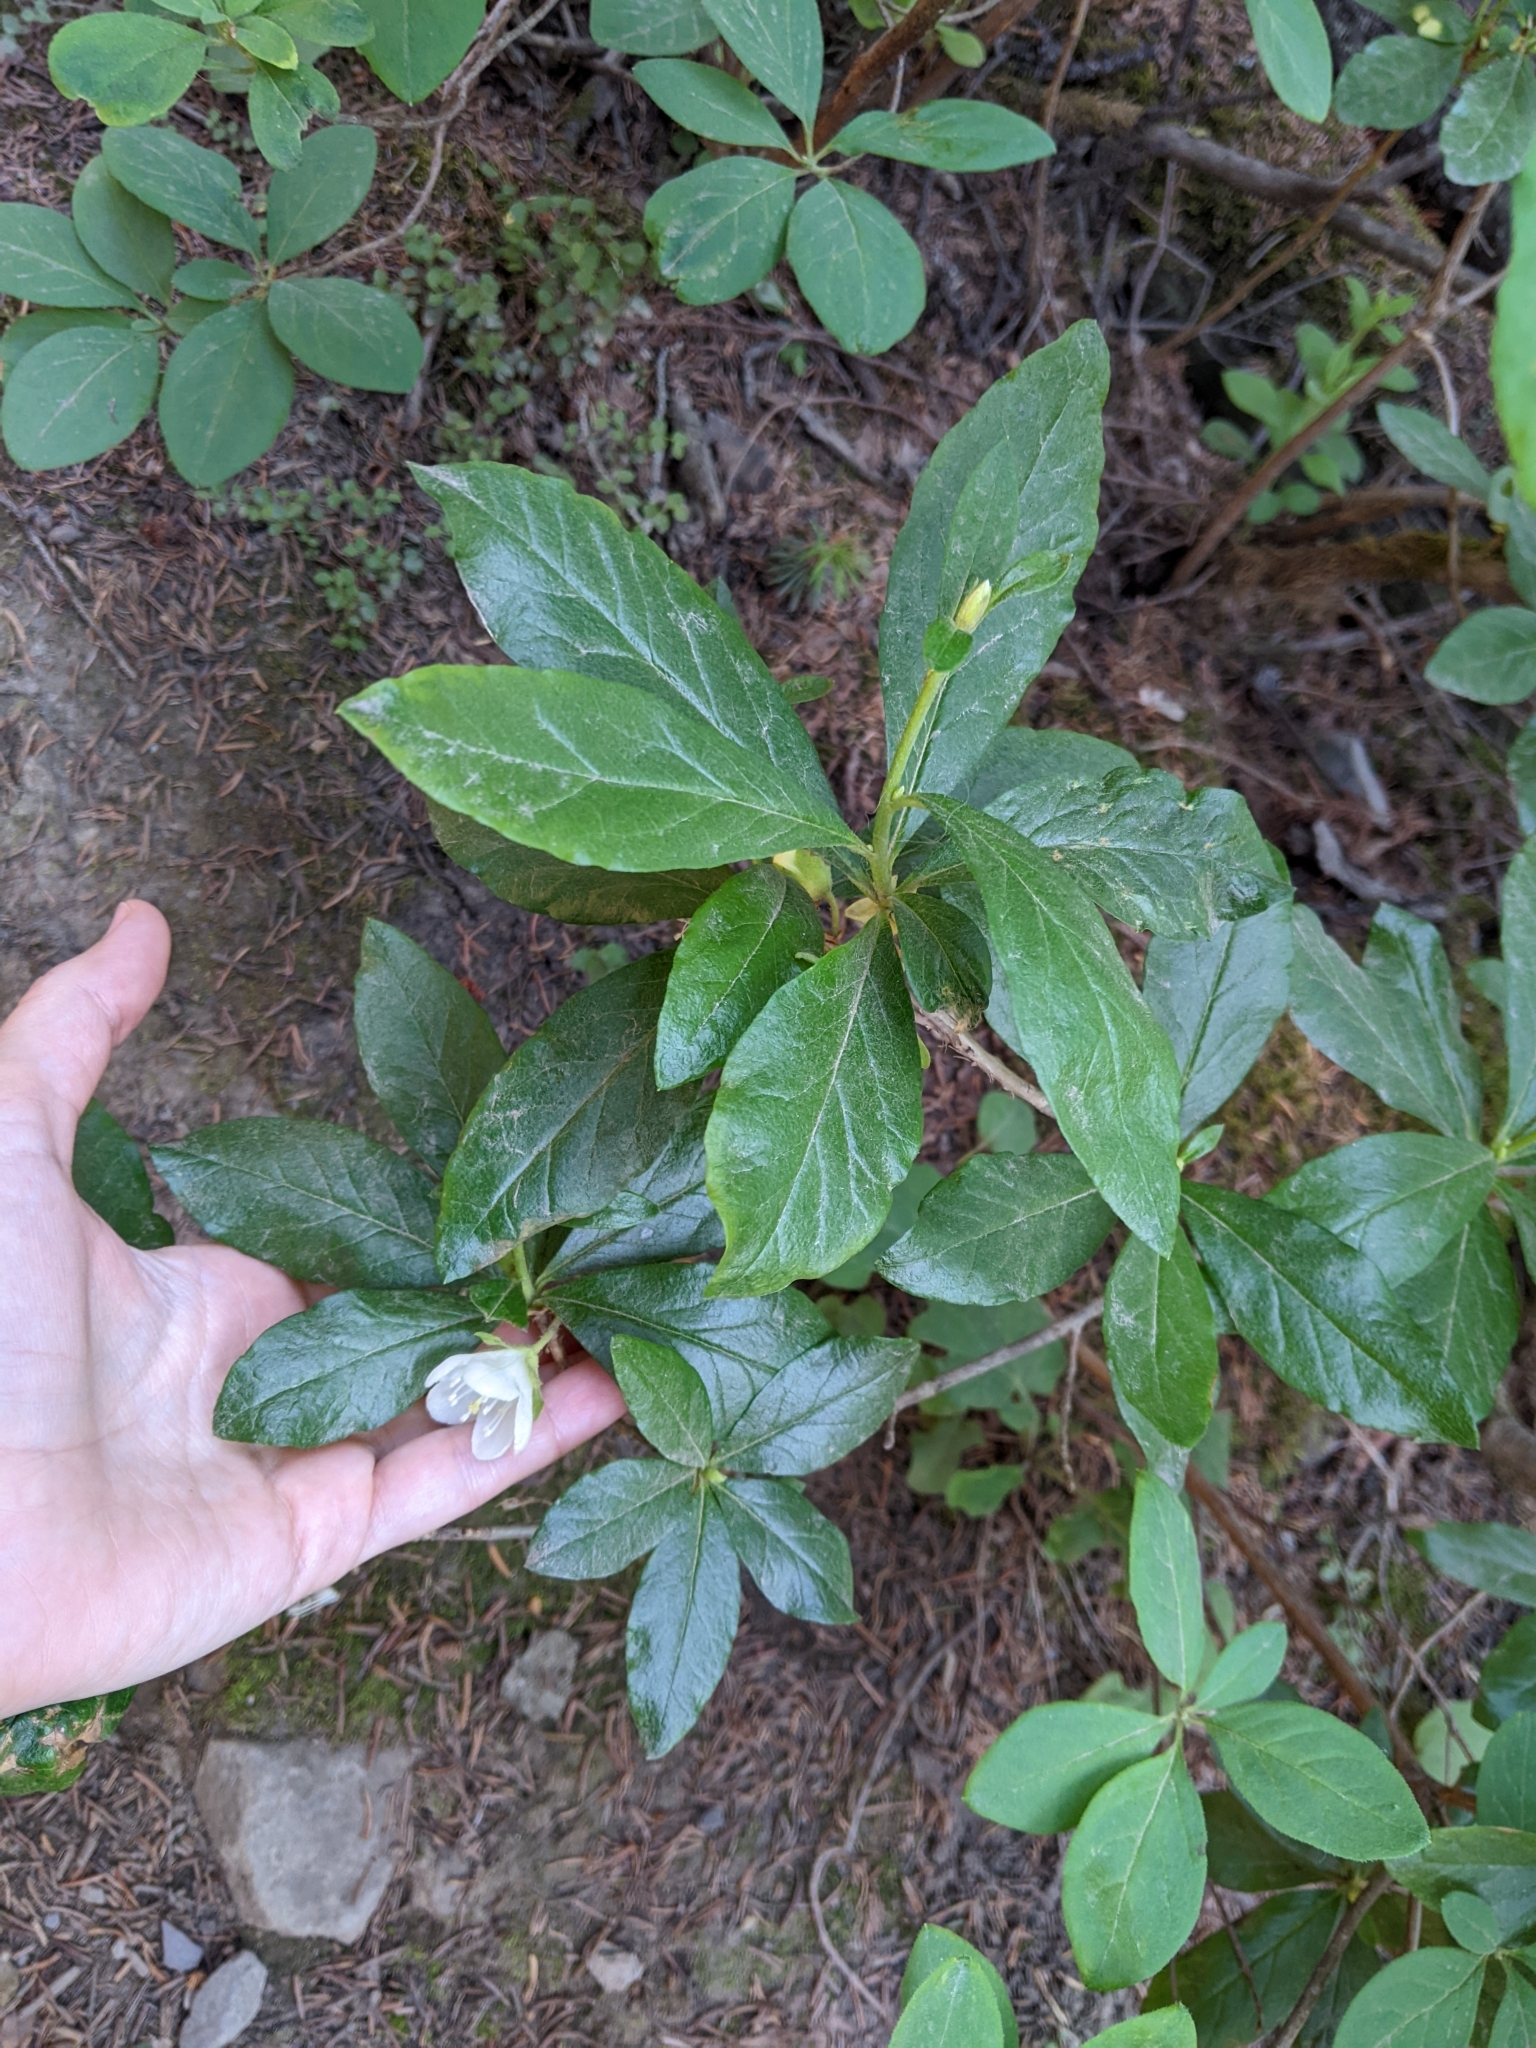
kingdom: Plantae
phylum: Tracheophyta
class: Magnoliopsida
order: Ericales
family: Ericaceae
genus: Rhododendron
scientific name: Rhododendron albiflorum
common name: White rhododendron
